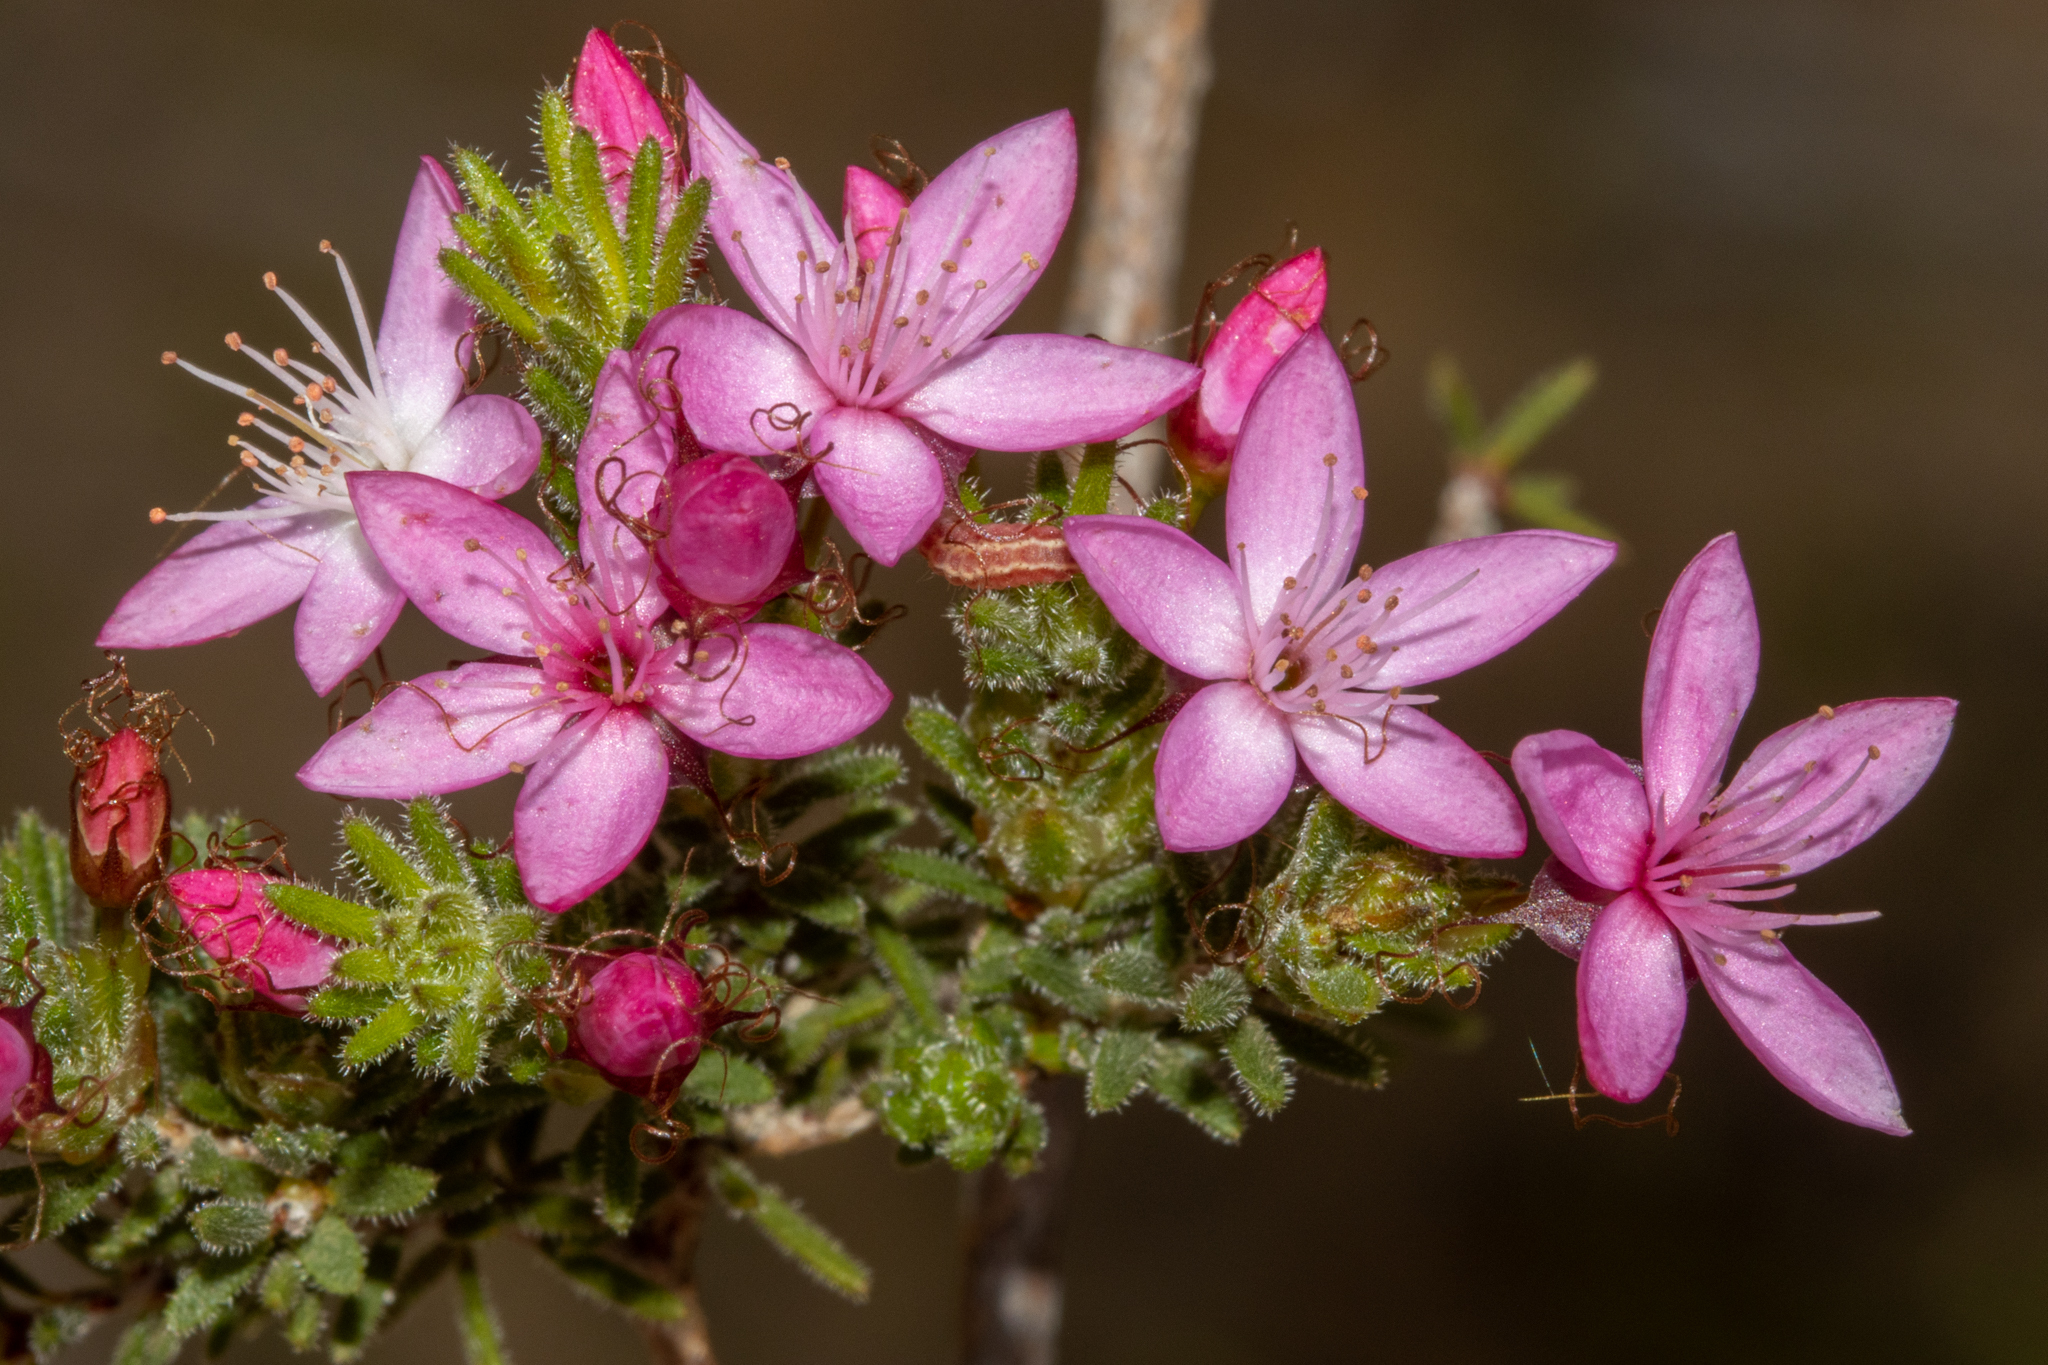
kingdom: Plantae
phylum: Tracheophyta
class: Magnoliopsida
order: Myrtales
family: Myrtaceae
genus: Calytrix
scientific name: Calytrix tetragona
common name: Common fringe myrtle
